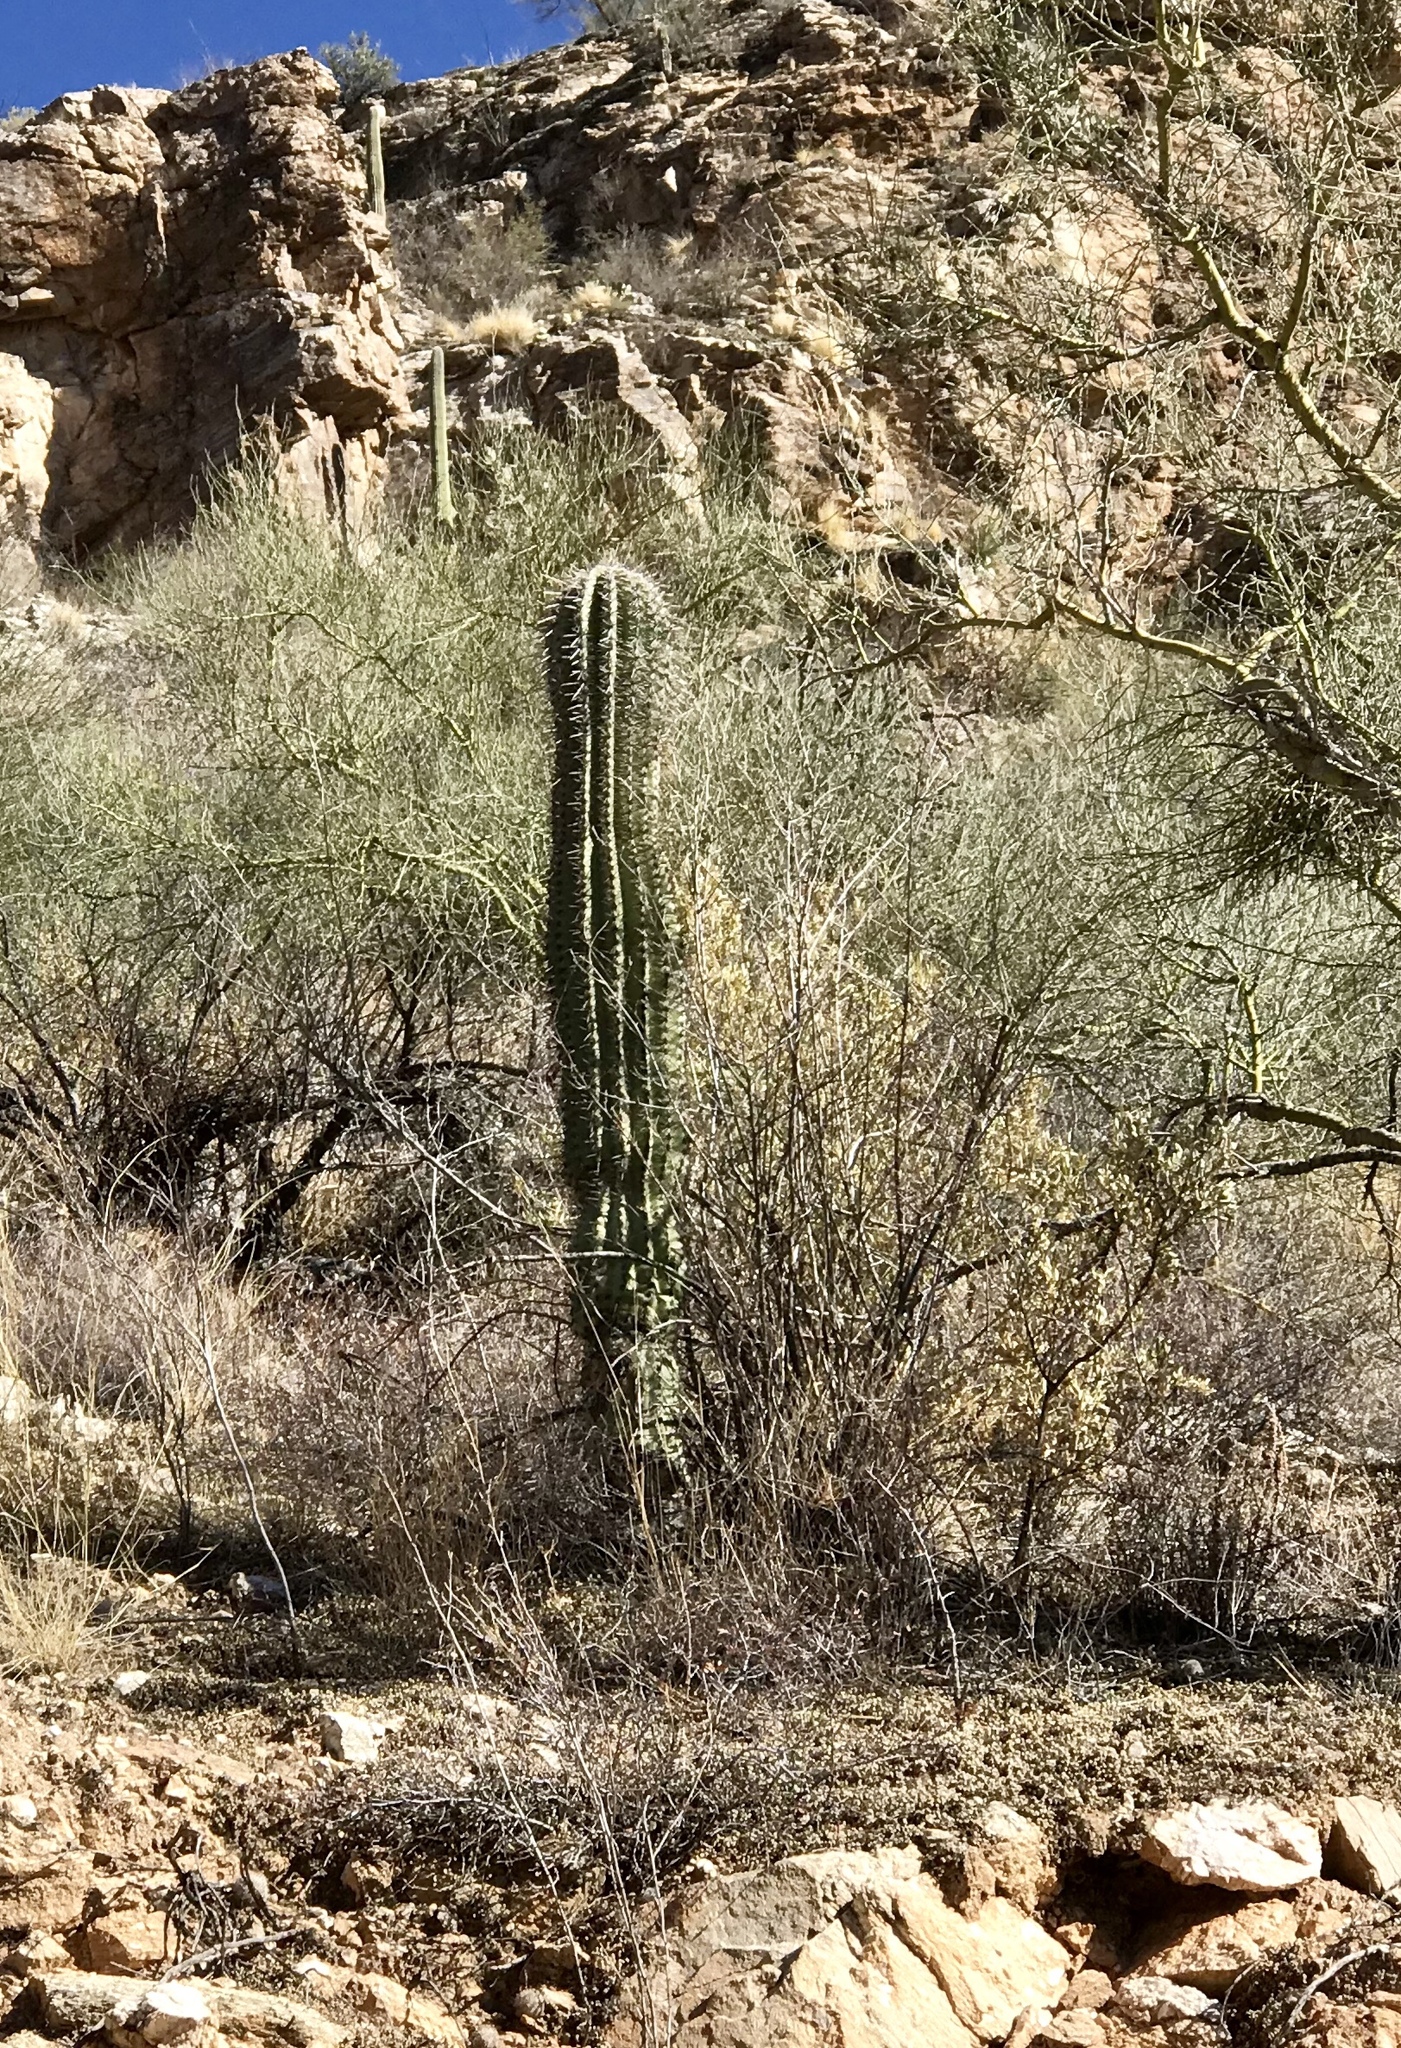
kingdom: Plantae
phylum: Tracheophyta
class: Magnoliopsida
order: Caryophyllales
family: Cactaceae
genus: Carnegiea
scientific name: Carnegiea gigantea
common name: Saguaro
